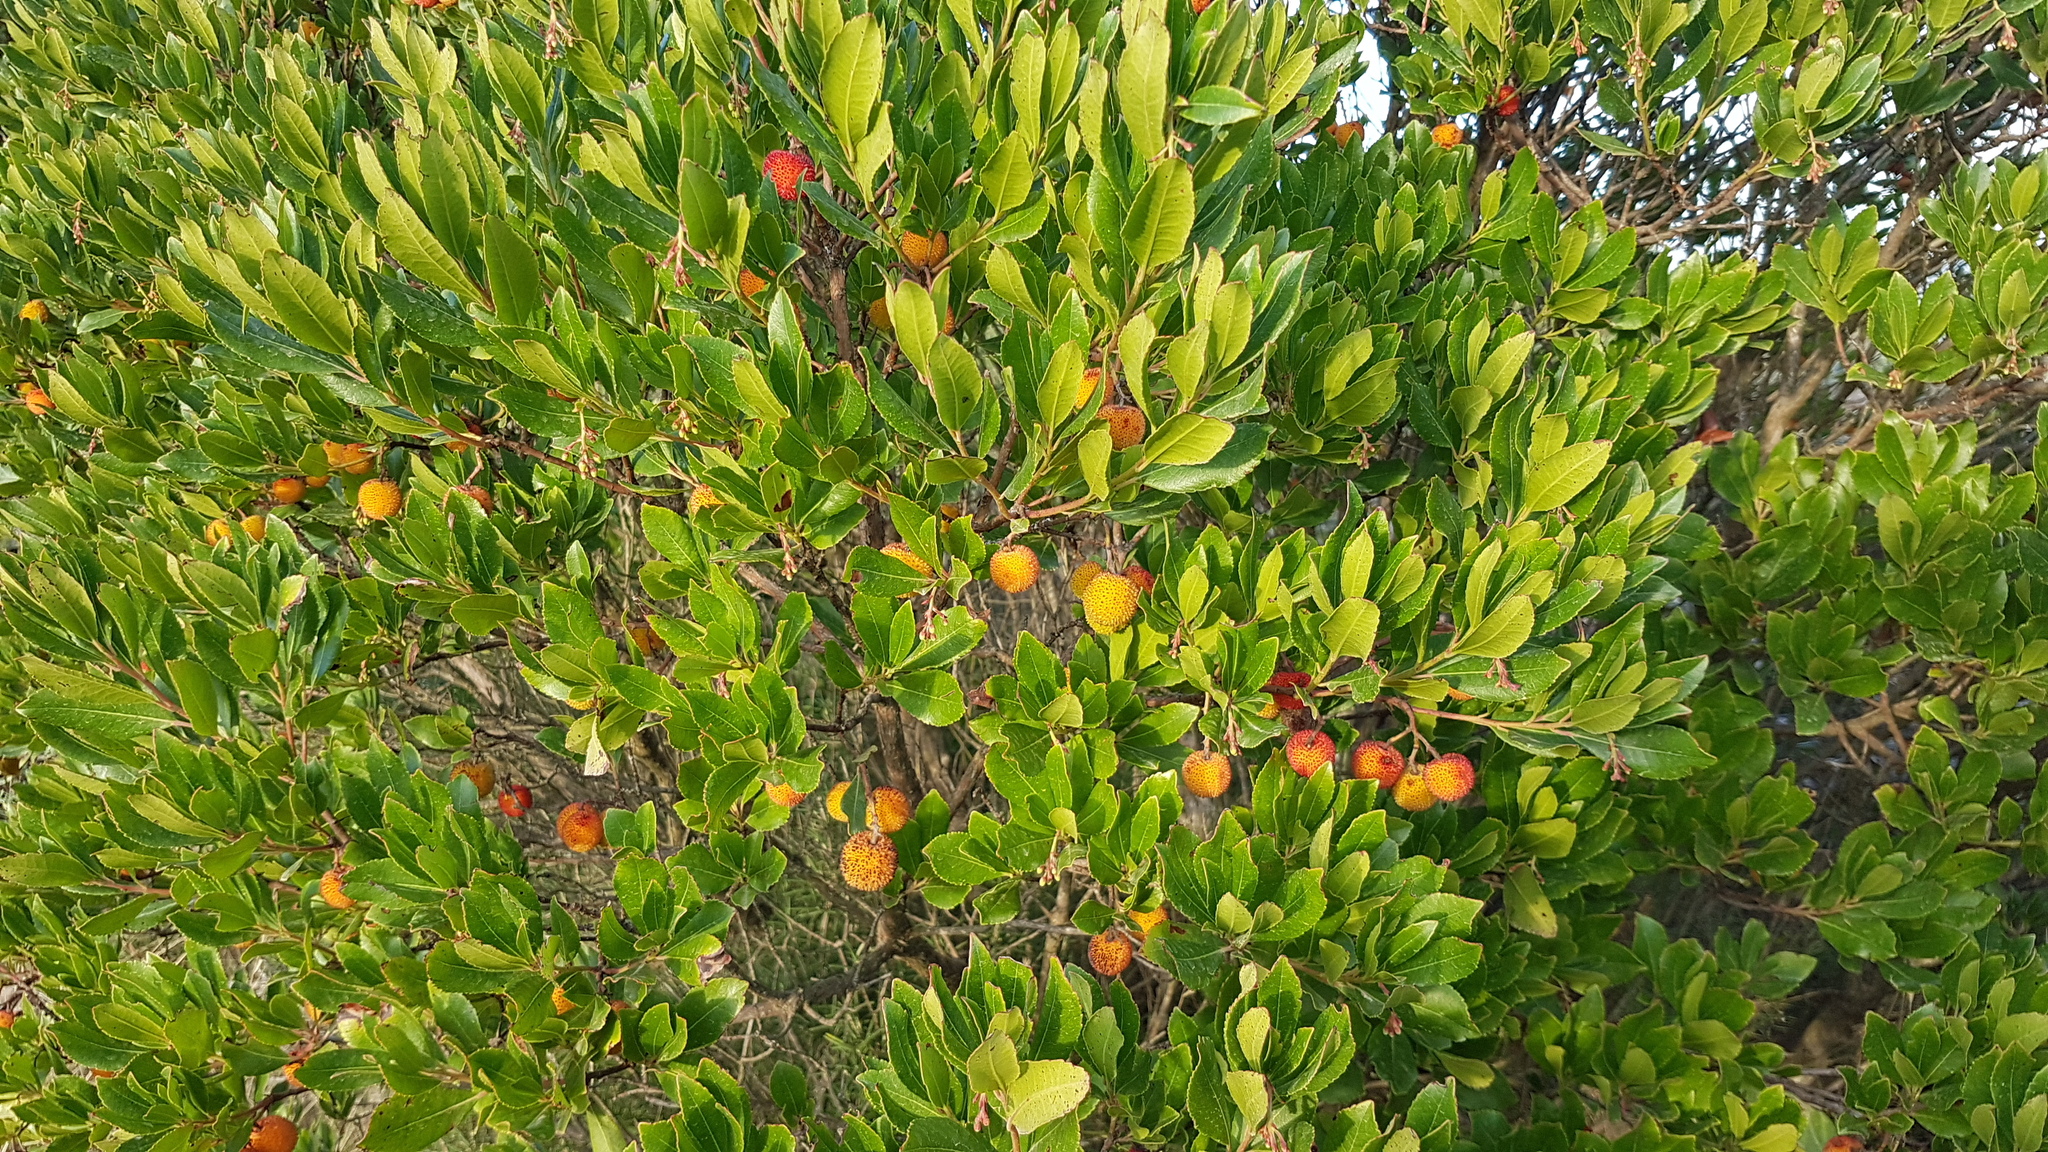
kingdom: Plantae
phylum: Tracheophyta
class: Magnoliopsida
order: Ericales
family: Ericaceae
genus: Arbutus
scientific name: Arbutus unedo
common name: Strawberry-tree
